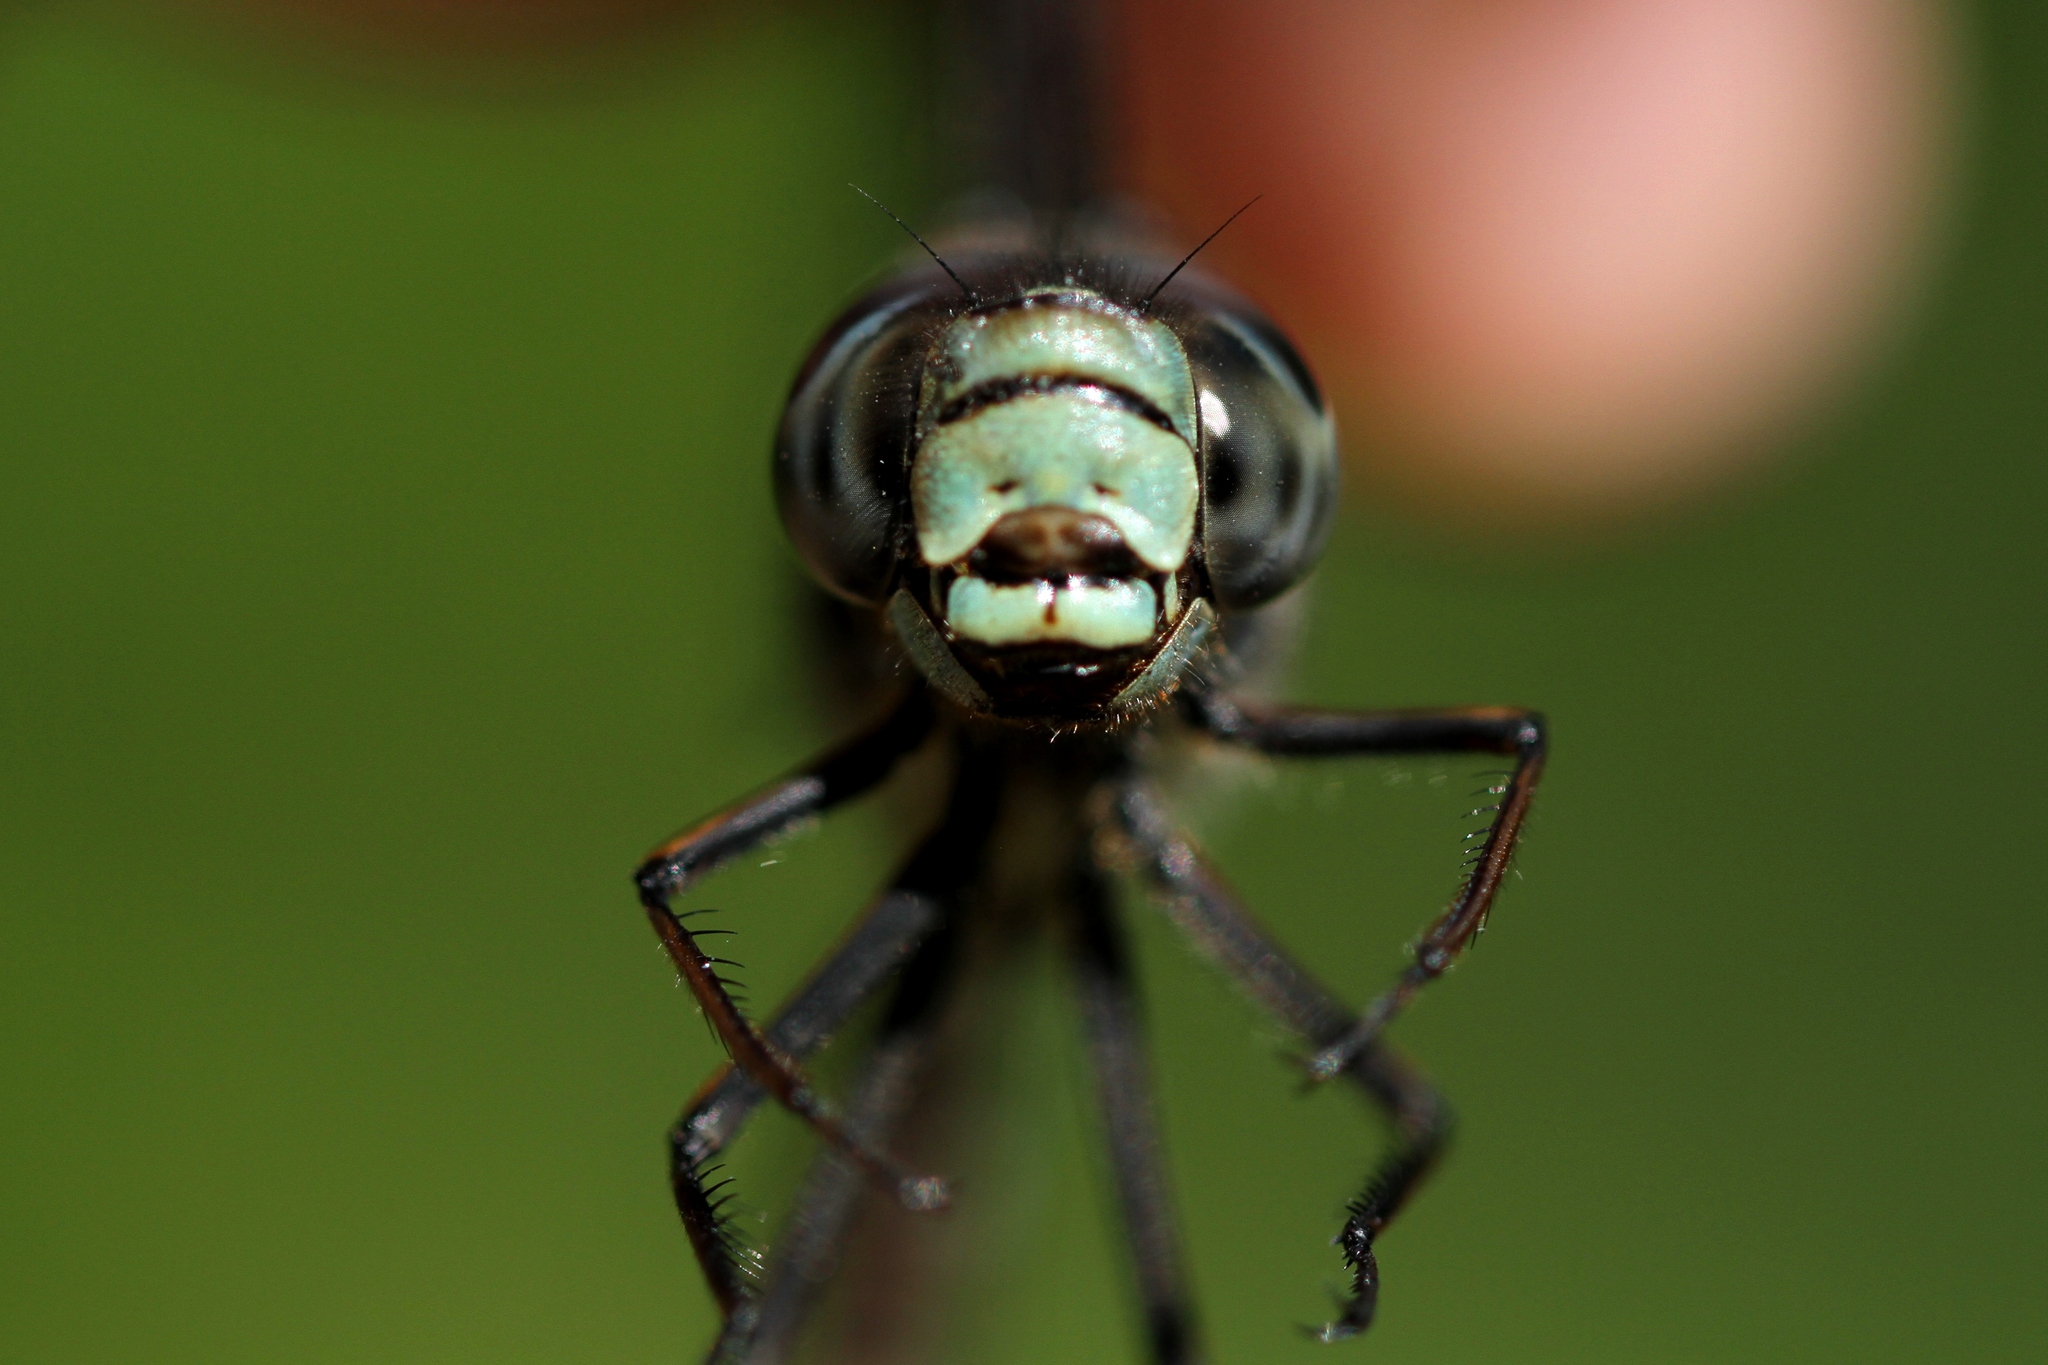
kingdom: Animalia
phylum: Arthropoda
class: Insecta
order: Odonata
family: Aeshnidae
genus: Aeshna
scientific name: Aeshna eremita
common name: Lake darner
